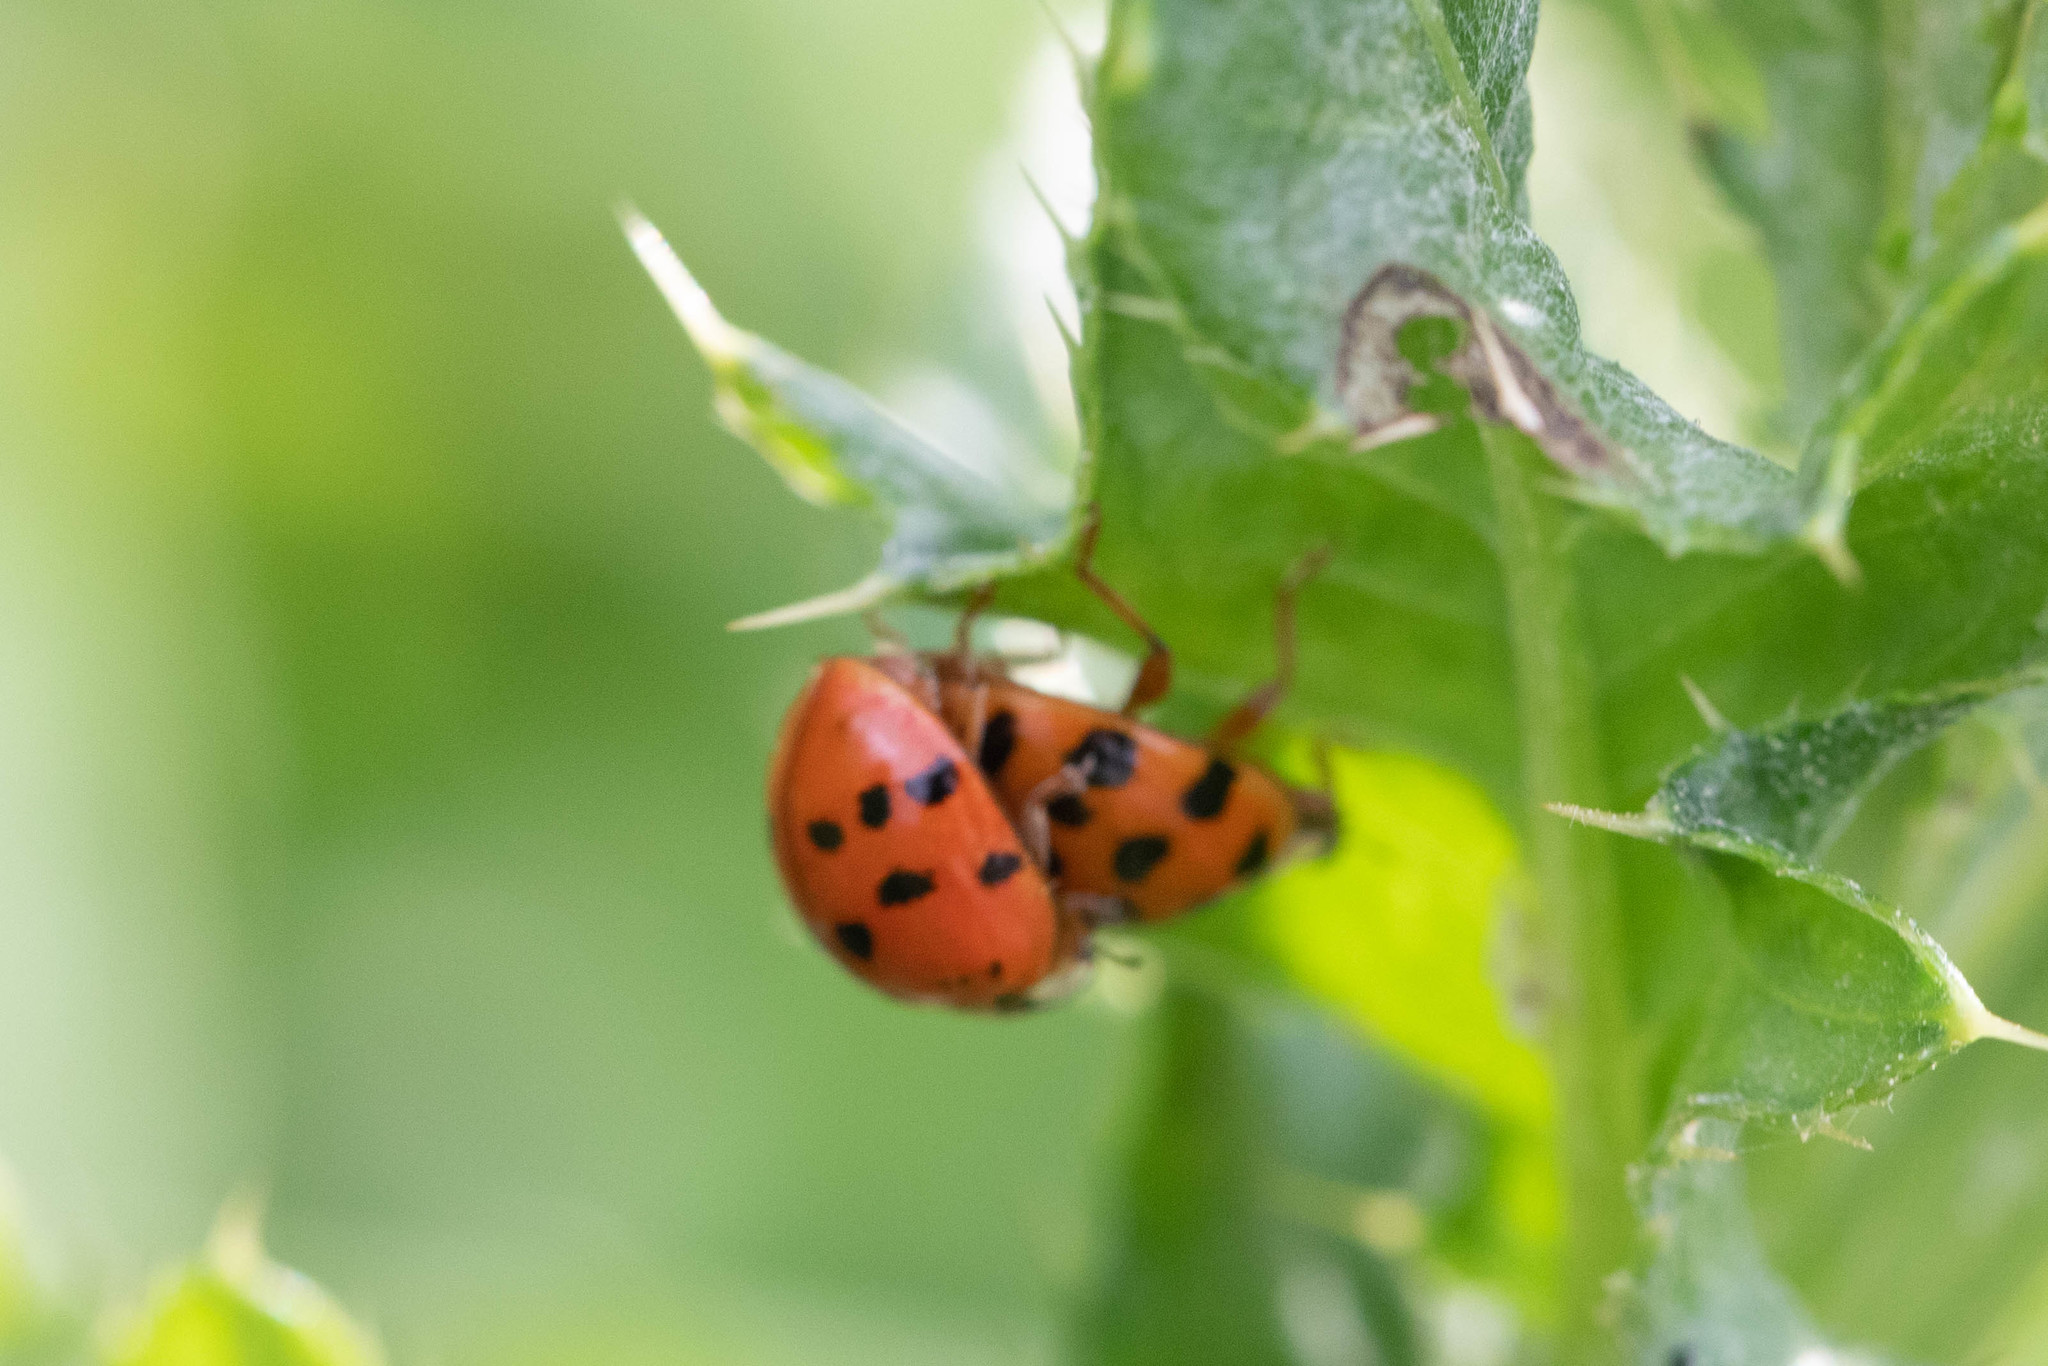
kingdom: Animalia
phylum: Arthropoda
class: Insecta
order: Coleoptera
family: Coccinellidae
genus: Harmonia
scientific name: Harmonia axyridis
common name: Harlequin ladybird
